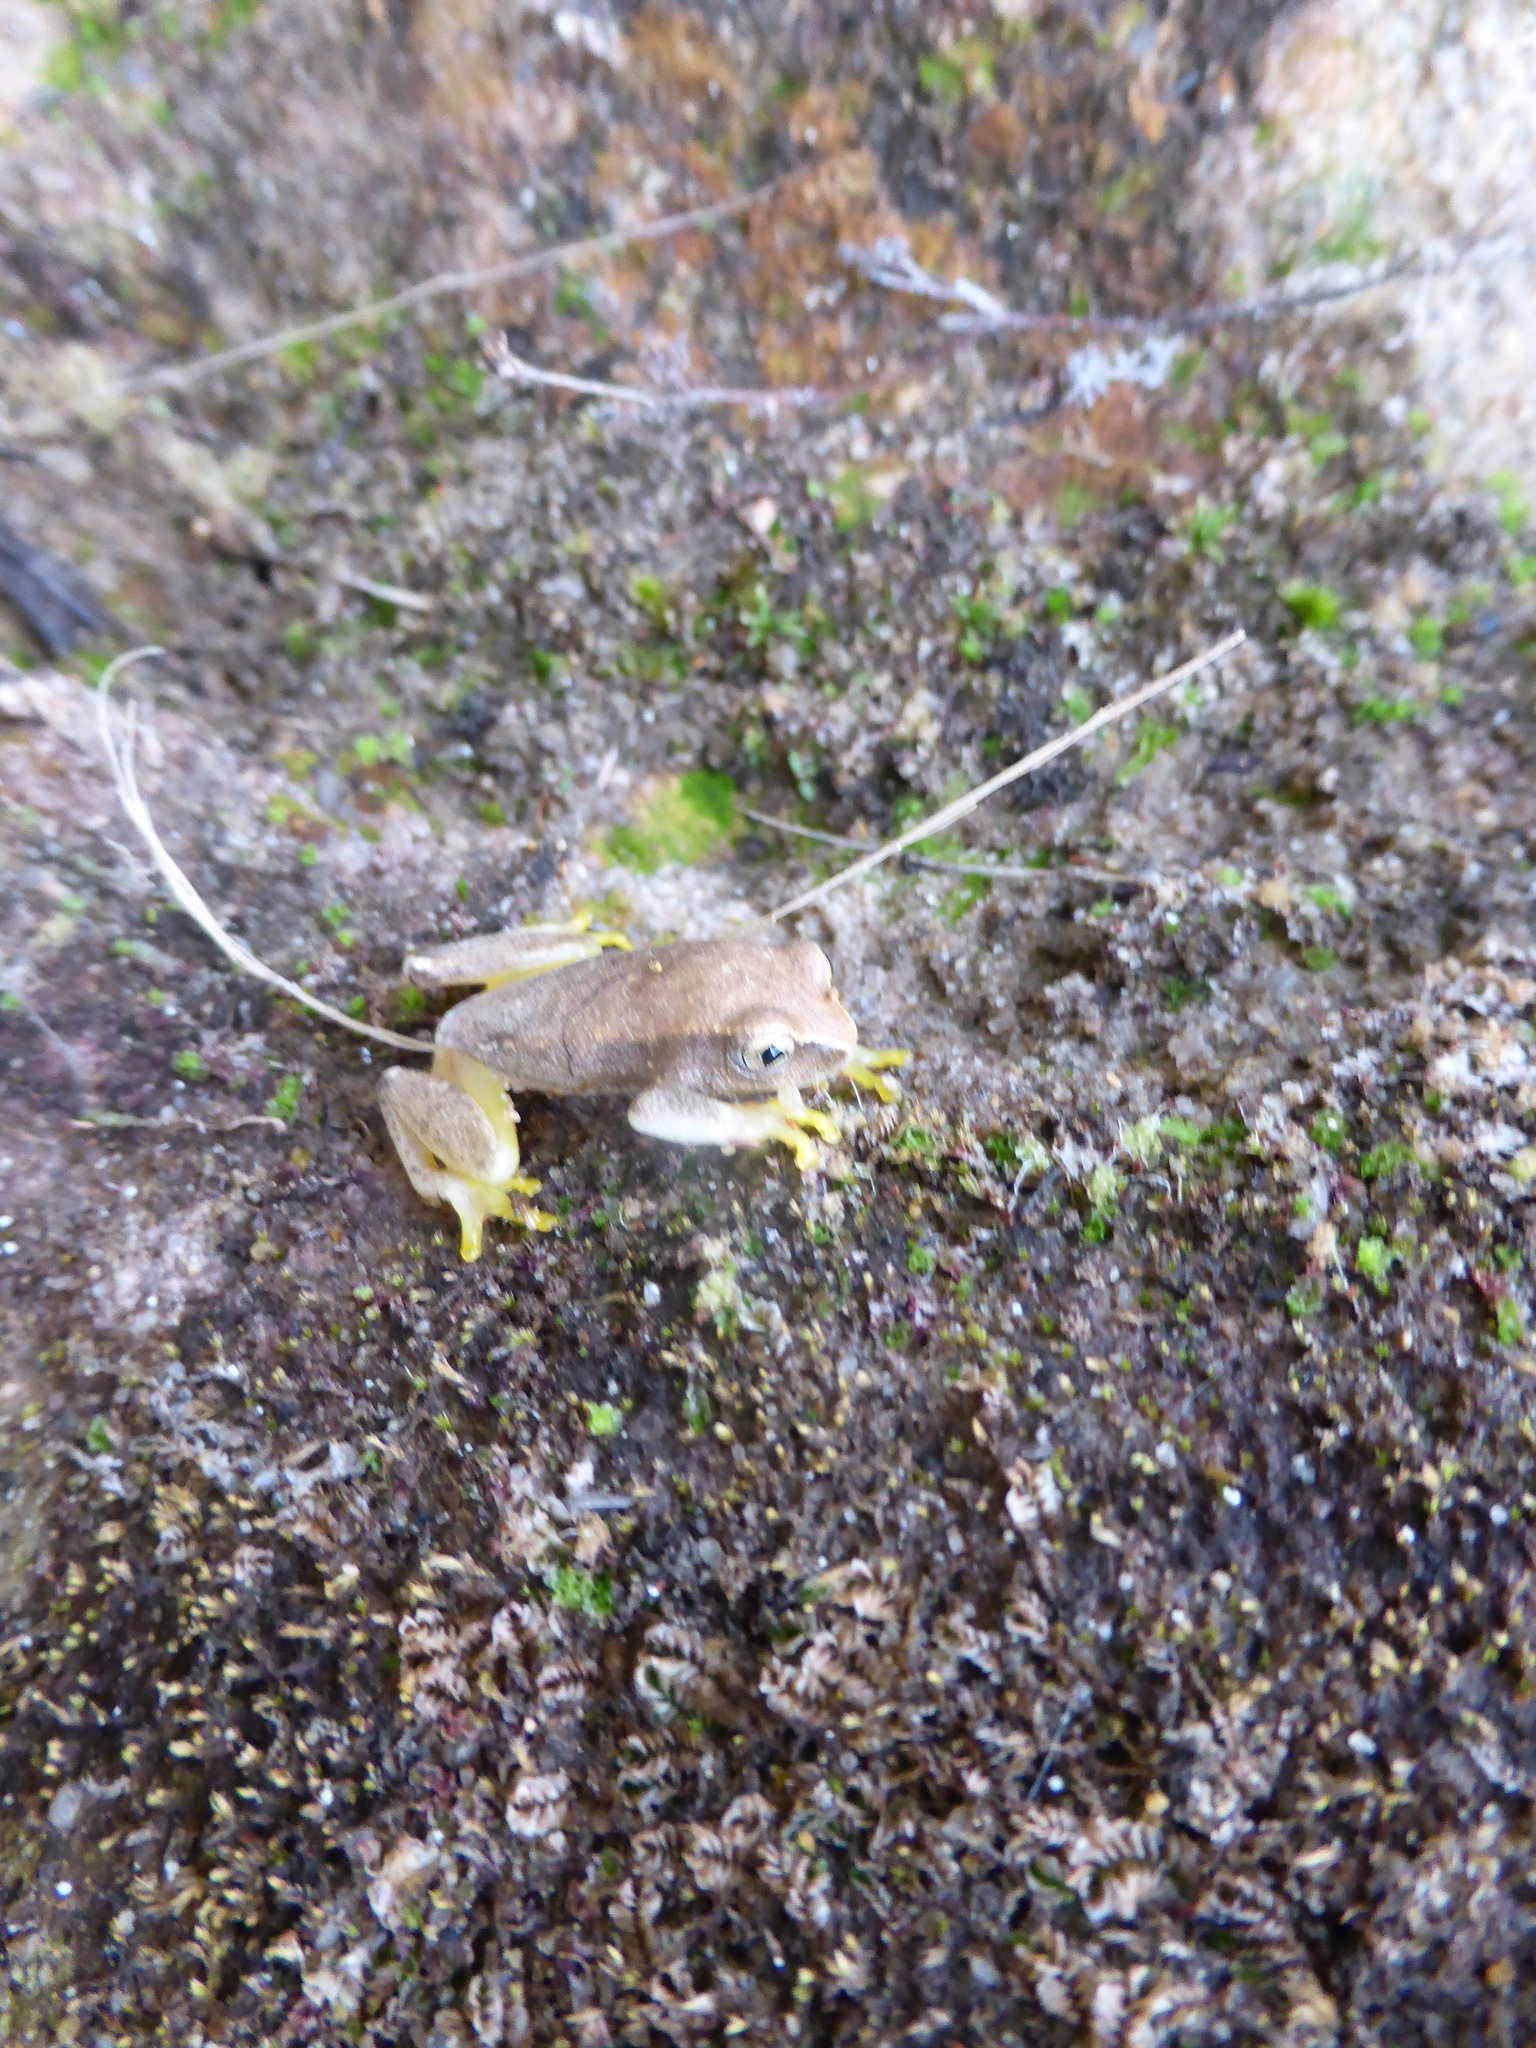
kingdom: Animalia
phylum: Chordata
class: Amphibia
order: Anura
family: Hyperoliidae
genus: Heterixalus
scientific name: Heterixalus betsileo
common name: Betsileo reed frog
